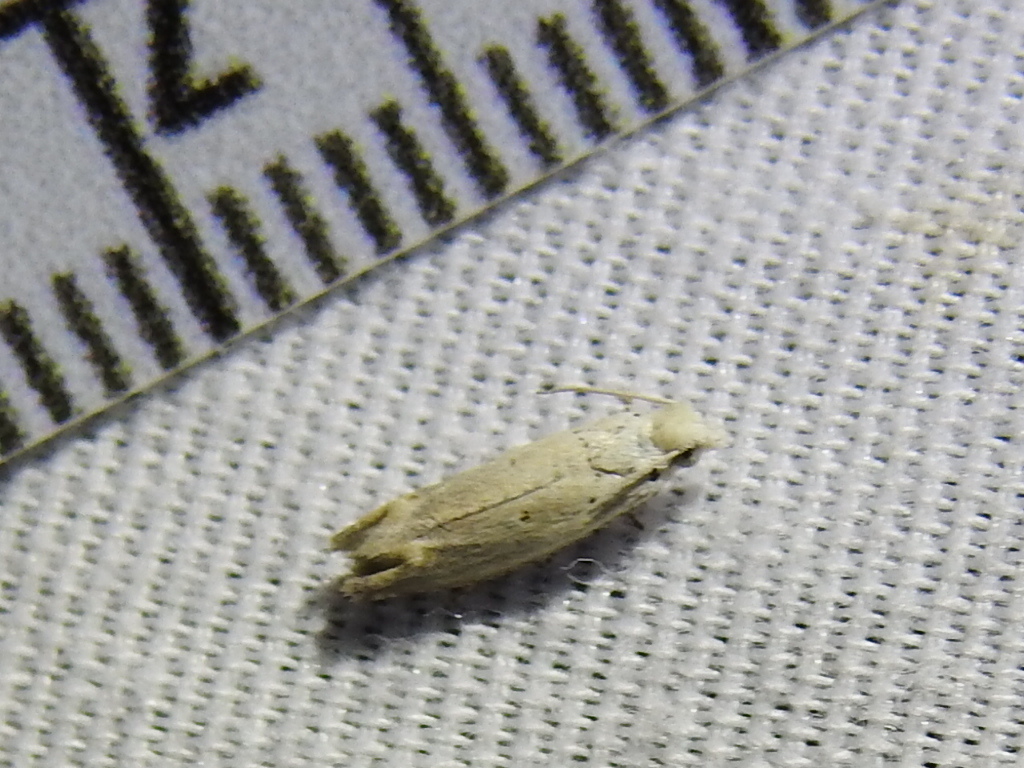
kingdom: Animalia
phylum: Arthropoda
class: Insecta
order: Lepidoptera
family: Tortricidae
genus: Epiblema
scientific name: Epiblema separationis
